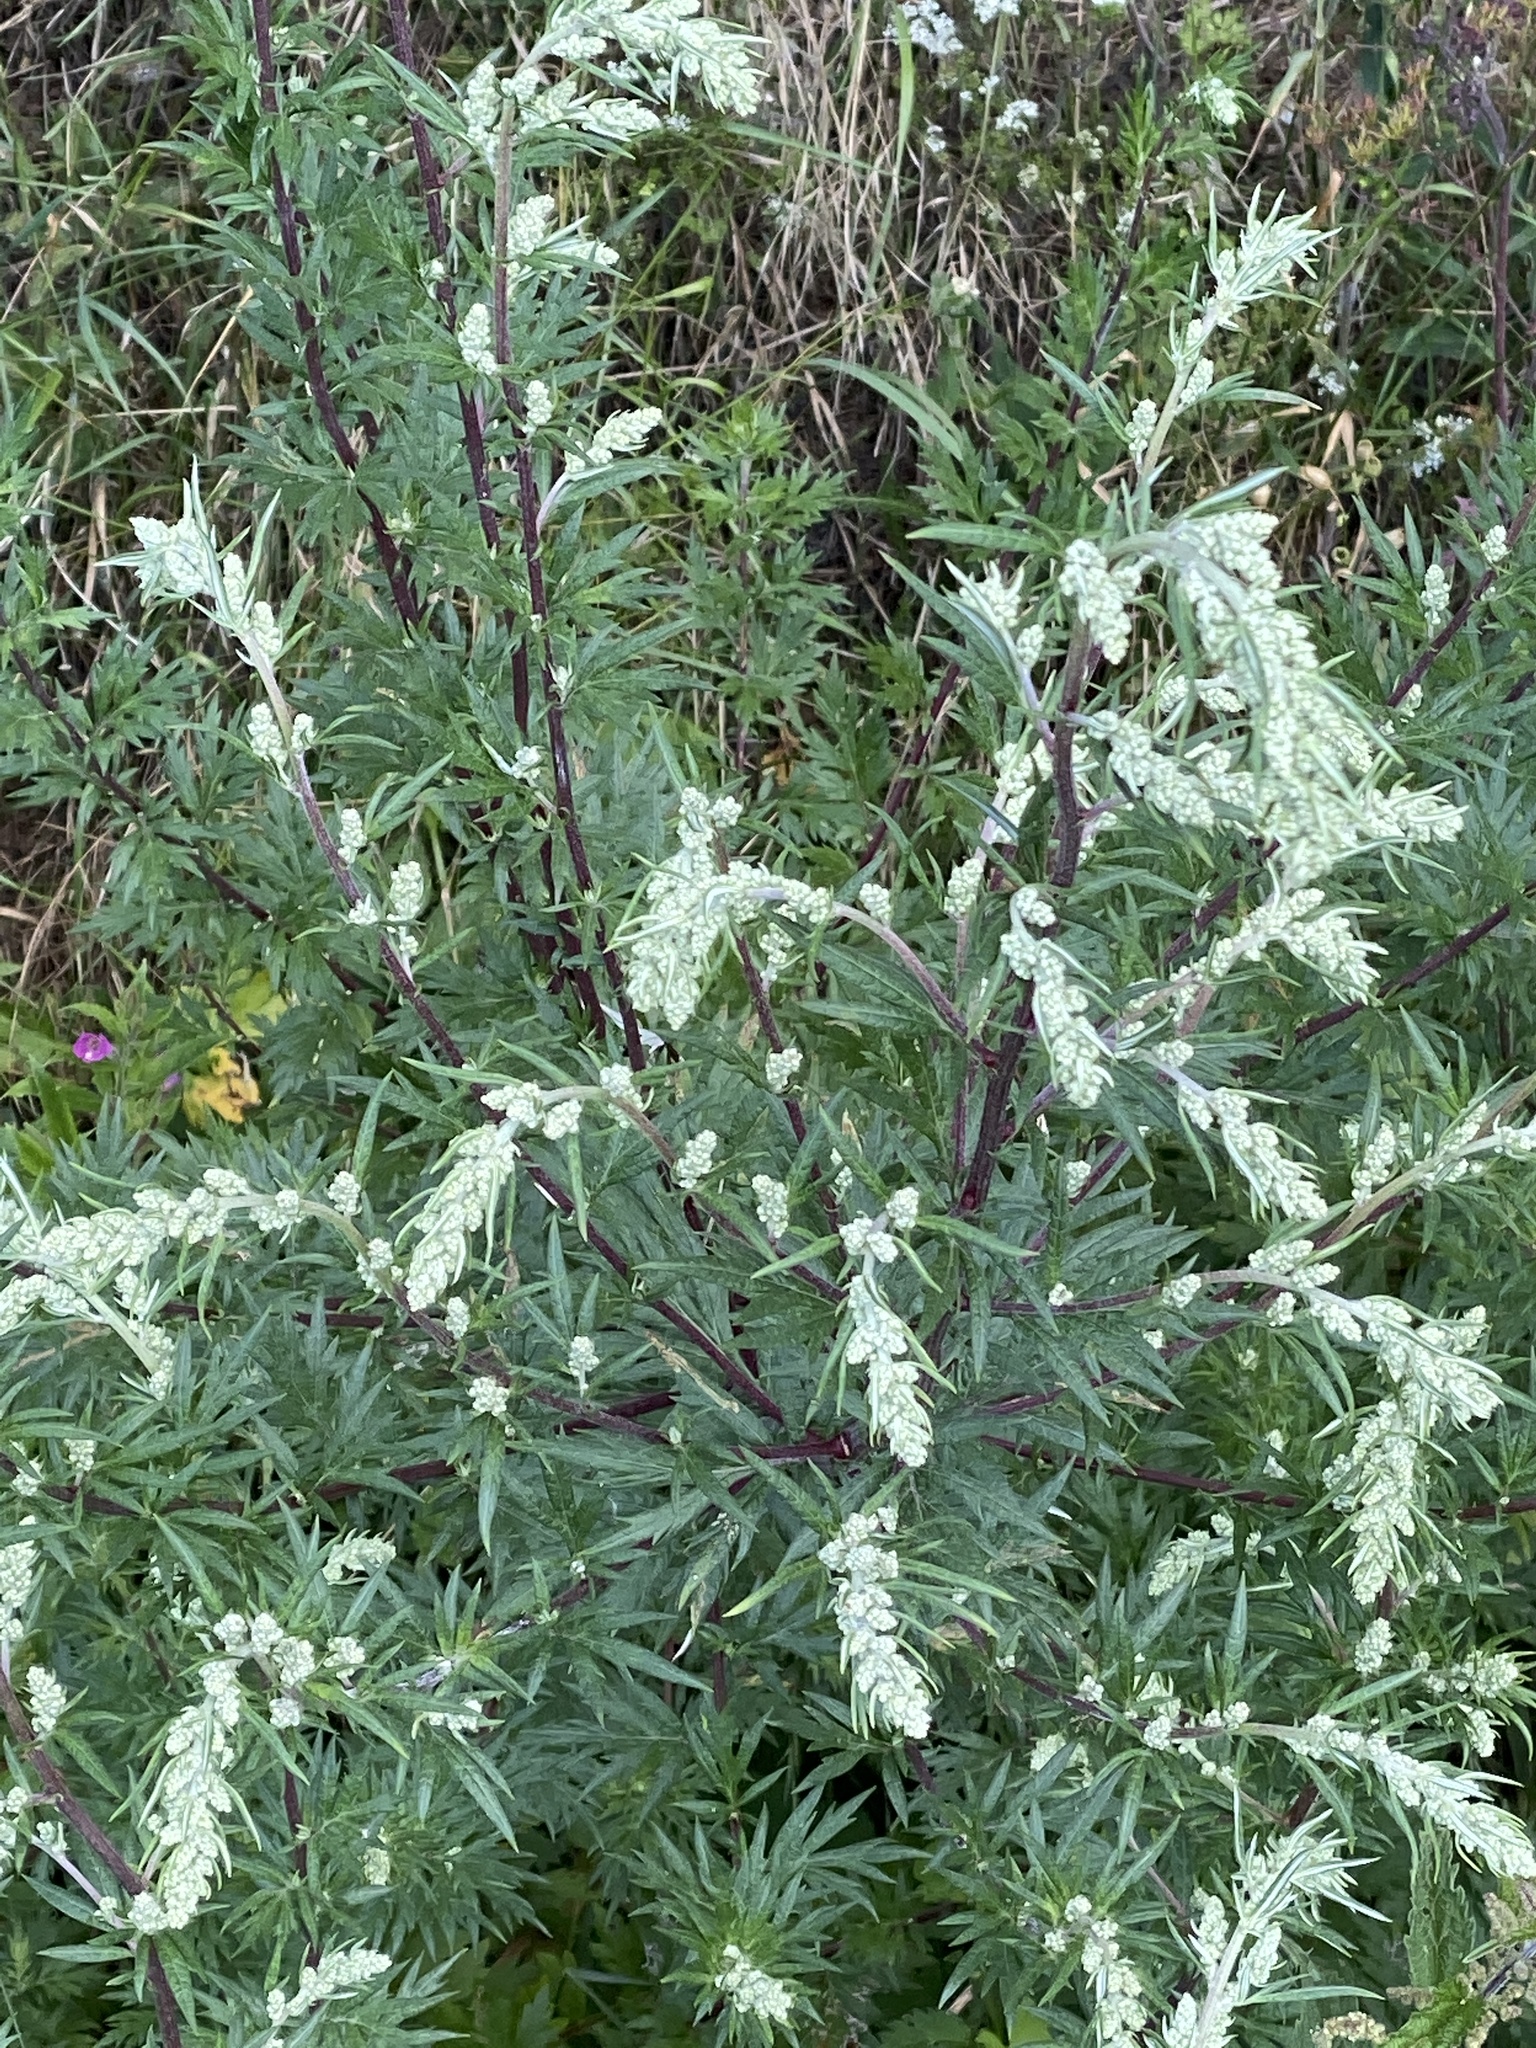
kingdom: Plantae
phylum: Tracheophyta
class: Magnoliopsida
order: Asterales
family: Asteraceae
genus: Artemisia
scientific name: Artemisia vulgaris
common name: Mugwort
